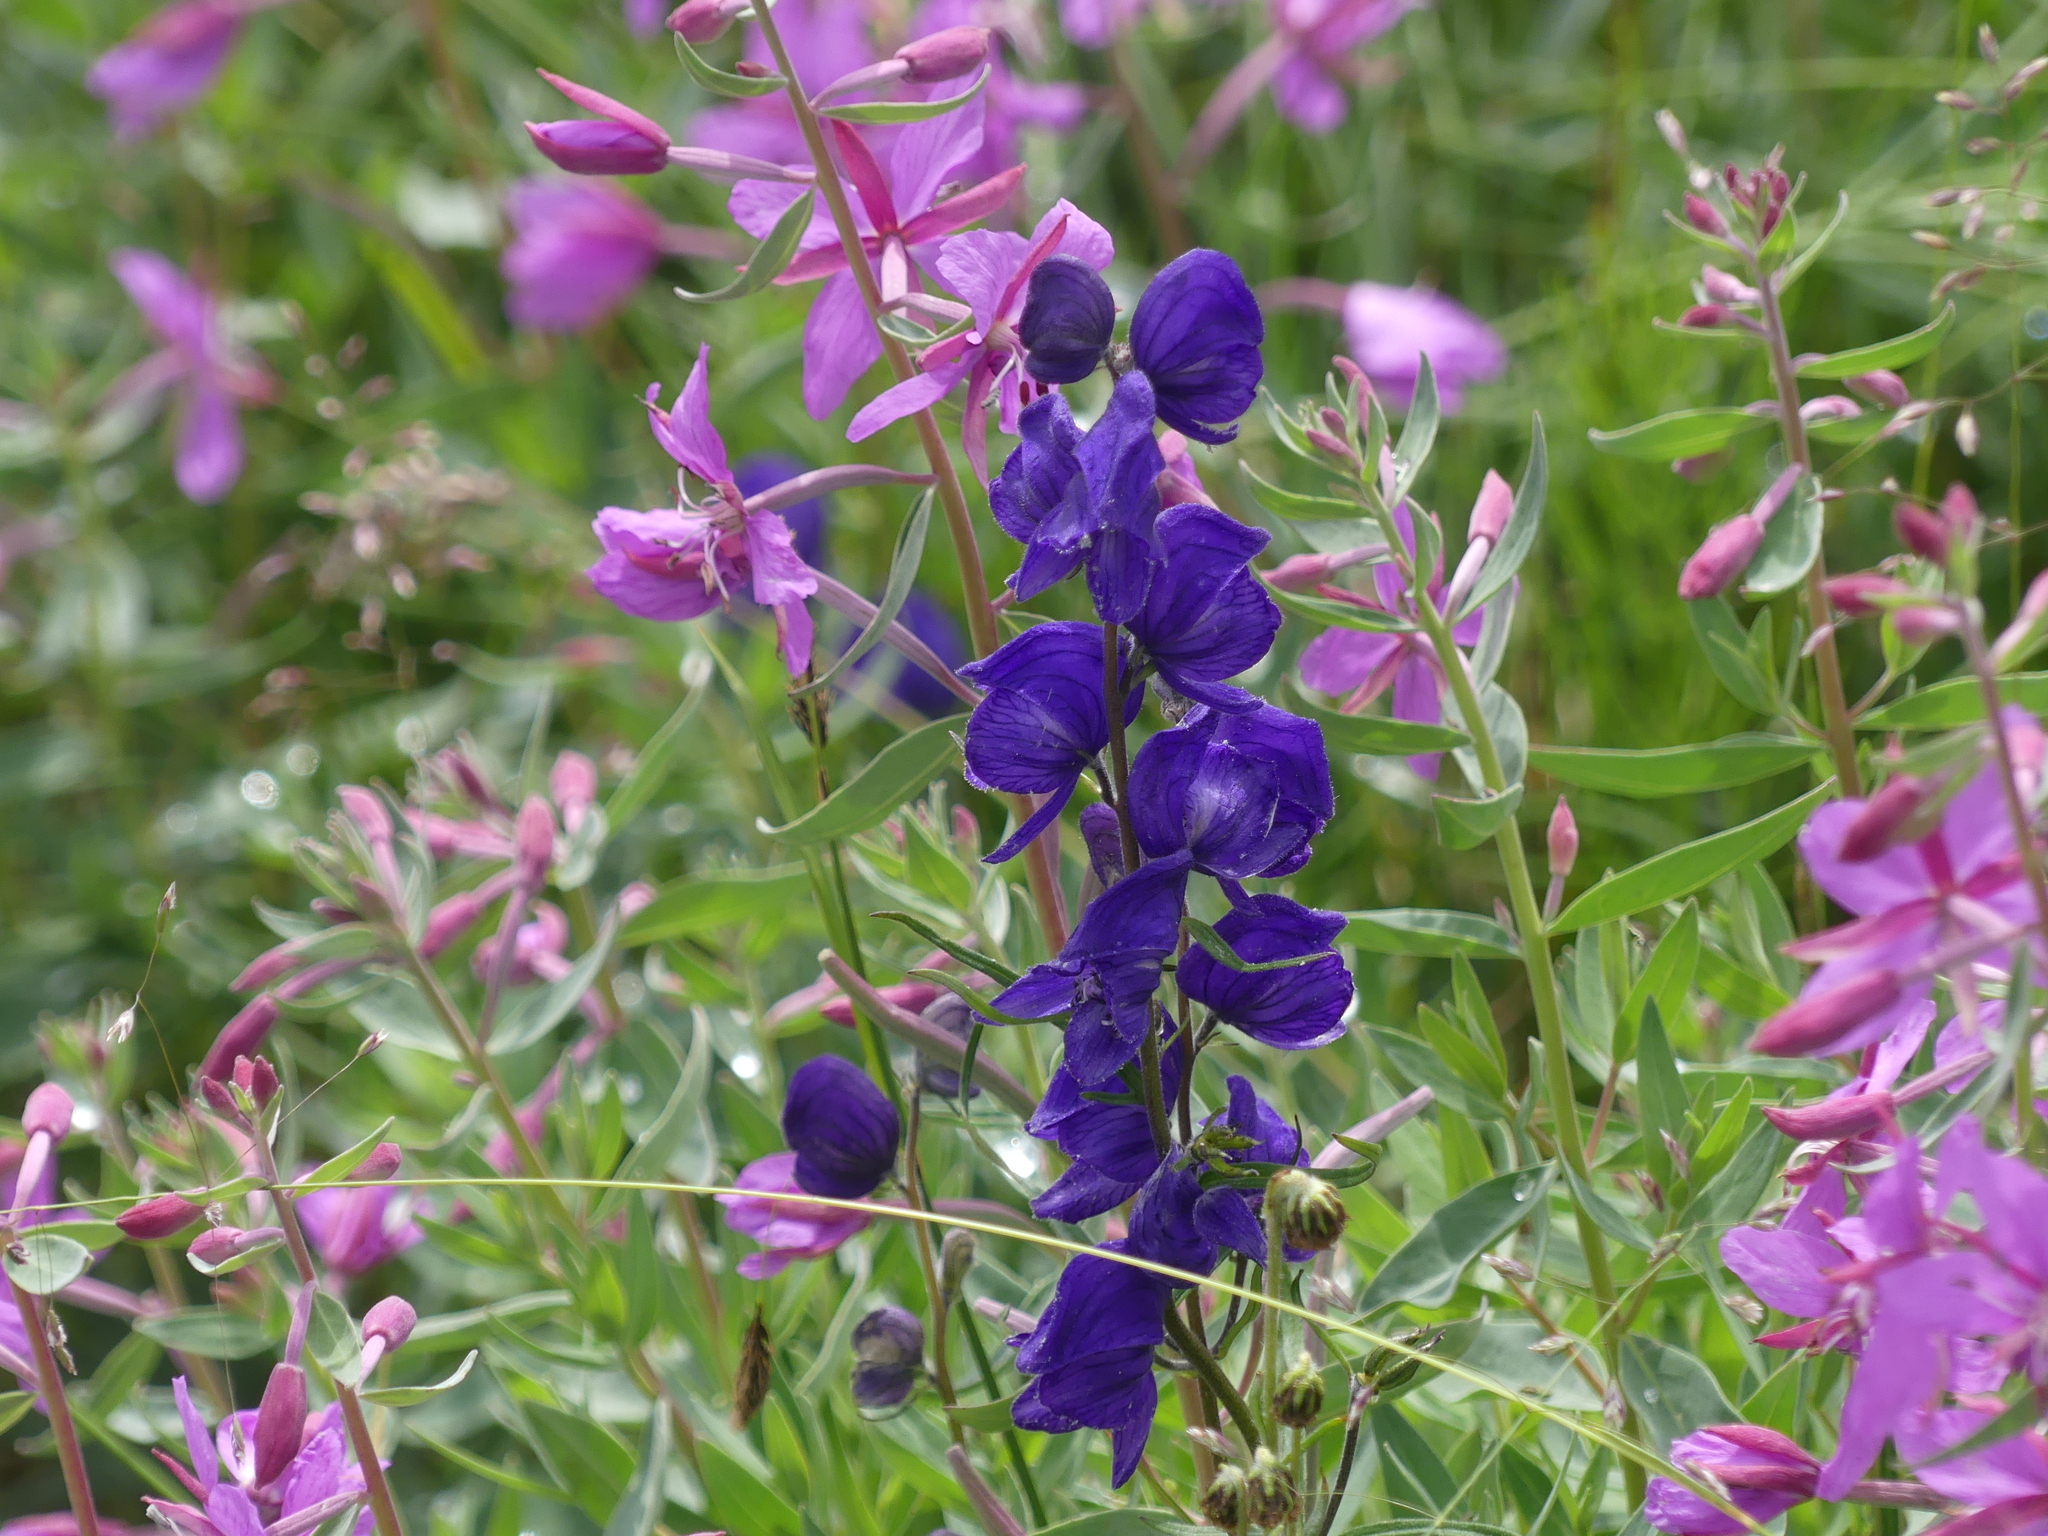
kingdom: Plantae
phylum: Tracheophyta
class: Magnoliopsida
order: Ranunculales
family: Ranunculaceae
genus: Aconitum
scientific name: Aconitum delphiniifolium
